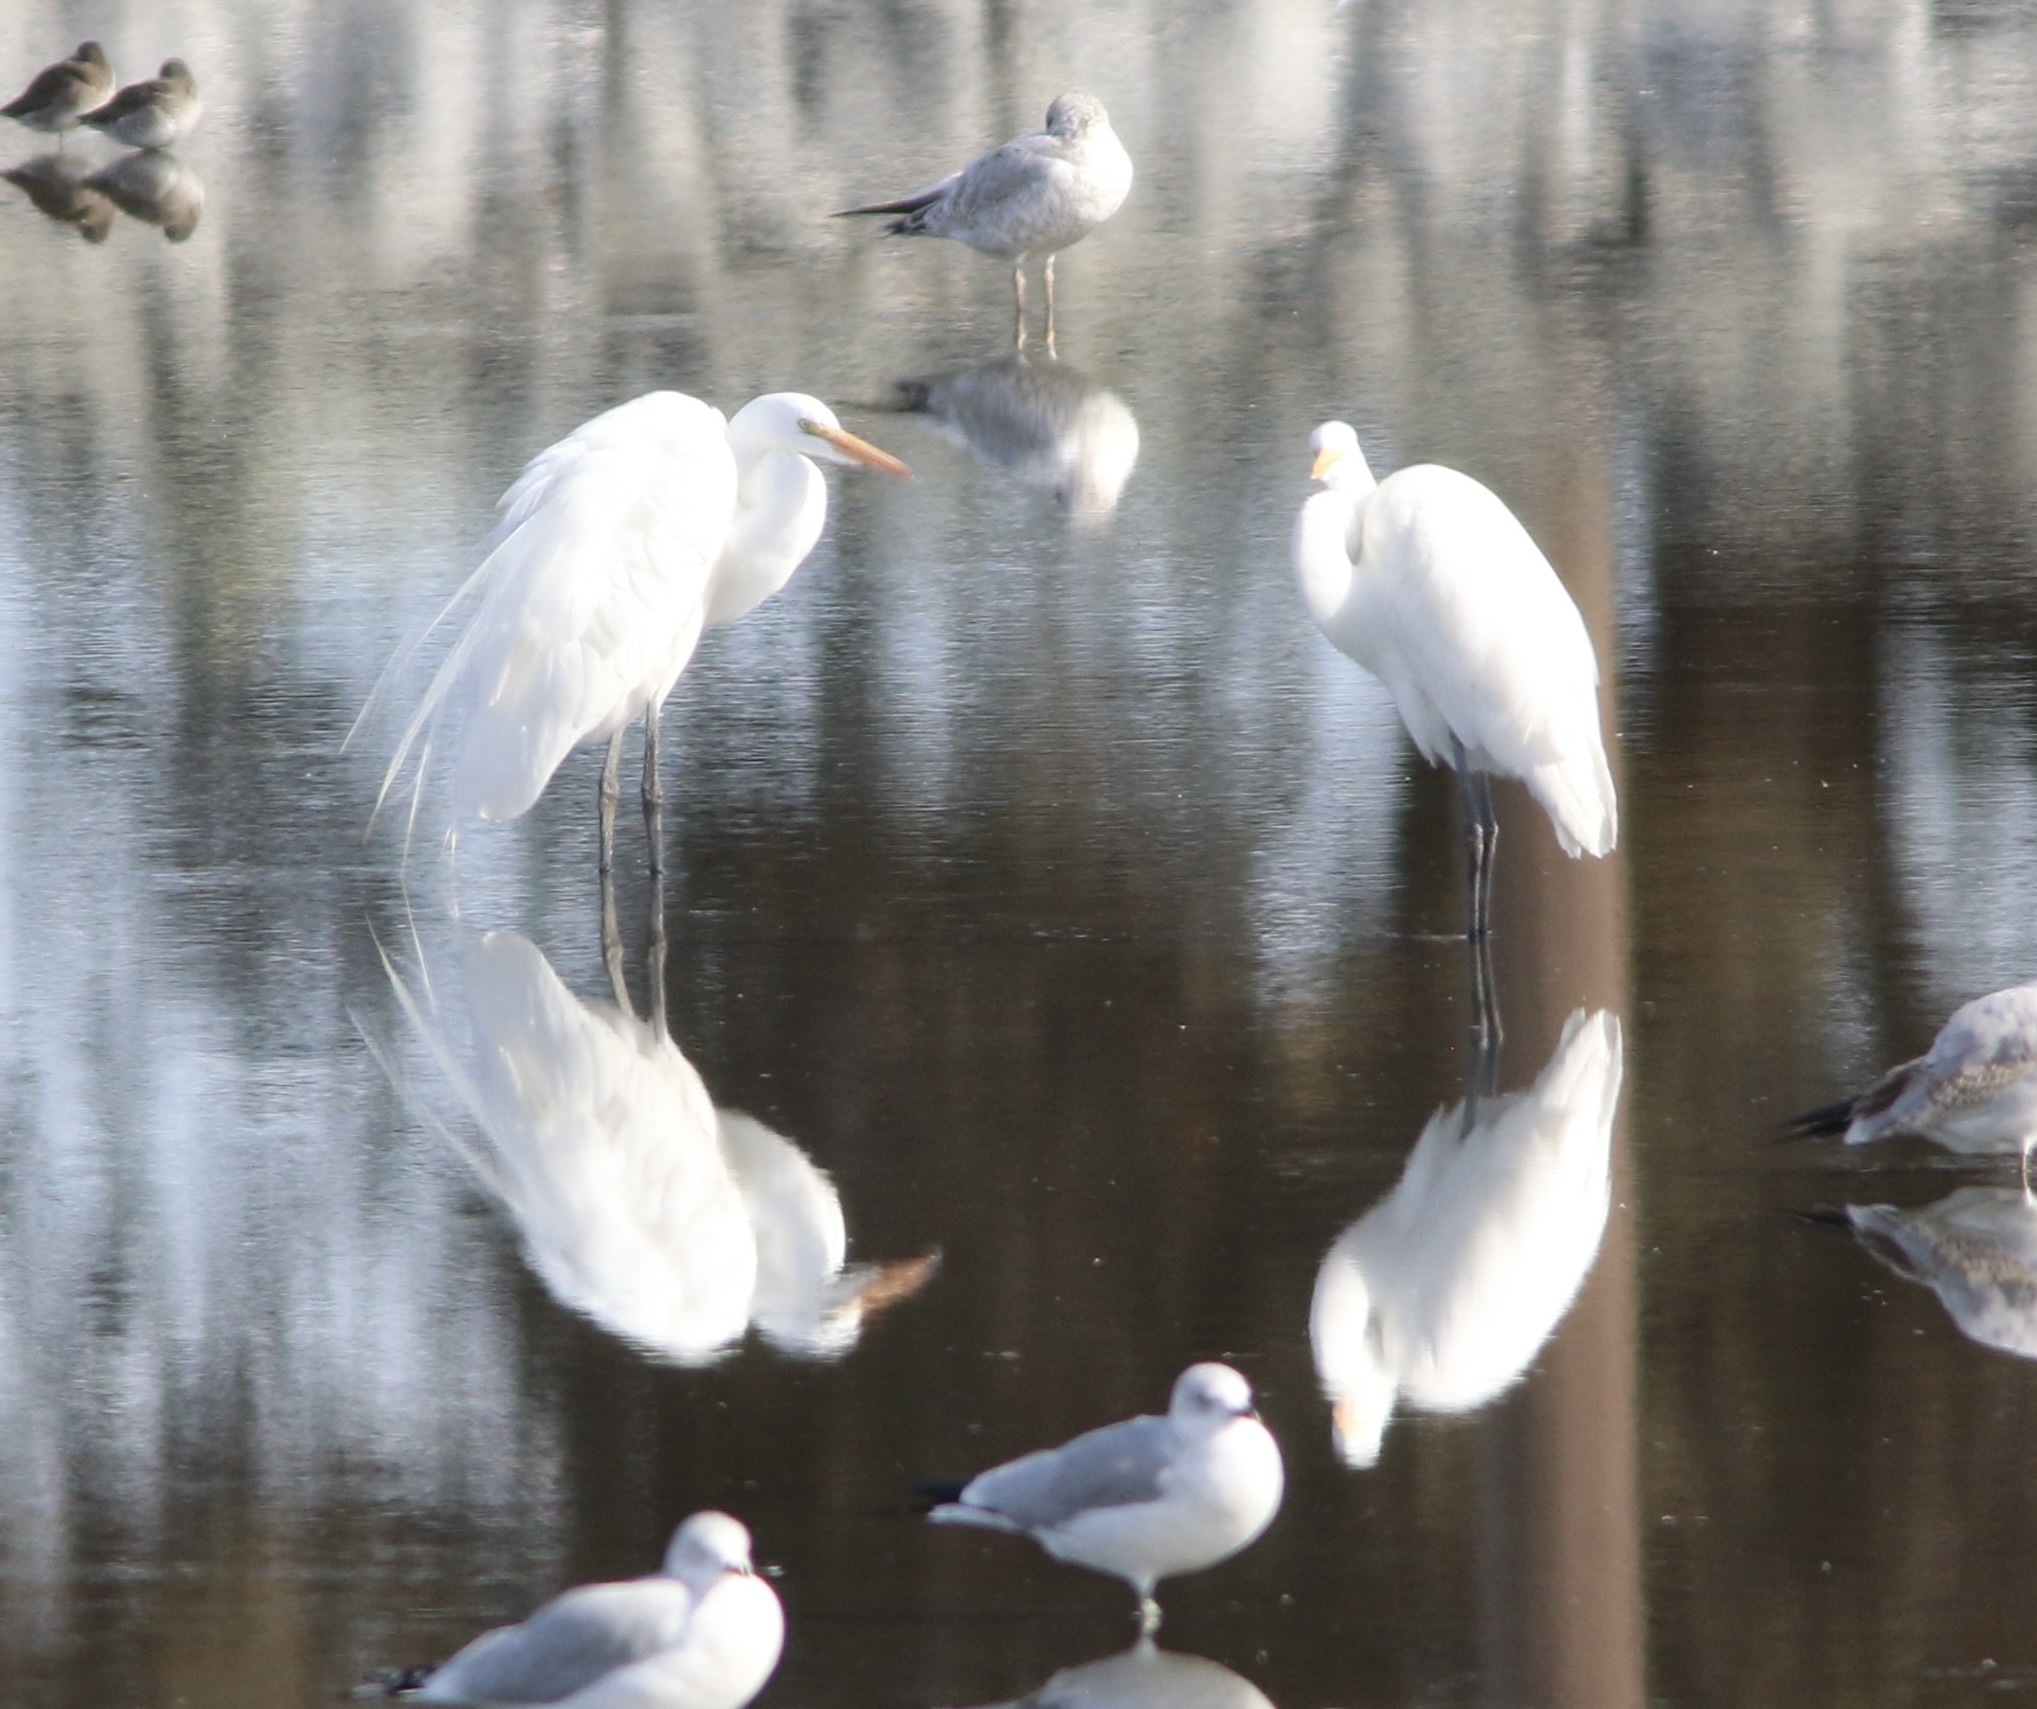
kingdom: Animalia
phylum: Chordata
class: Aves
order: Pelecaniformes
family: Ardeidae
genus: Ardea
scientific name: Ardea alba
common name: Great egret
